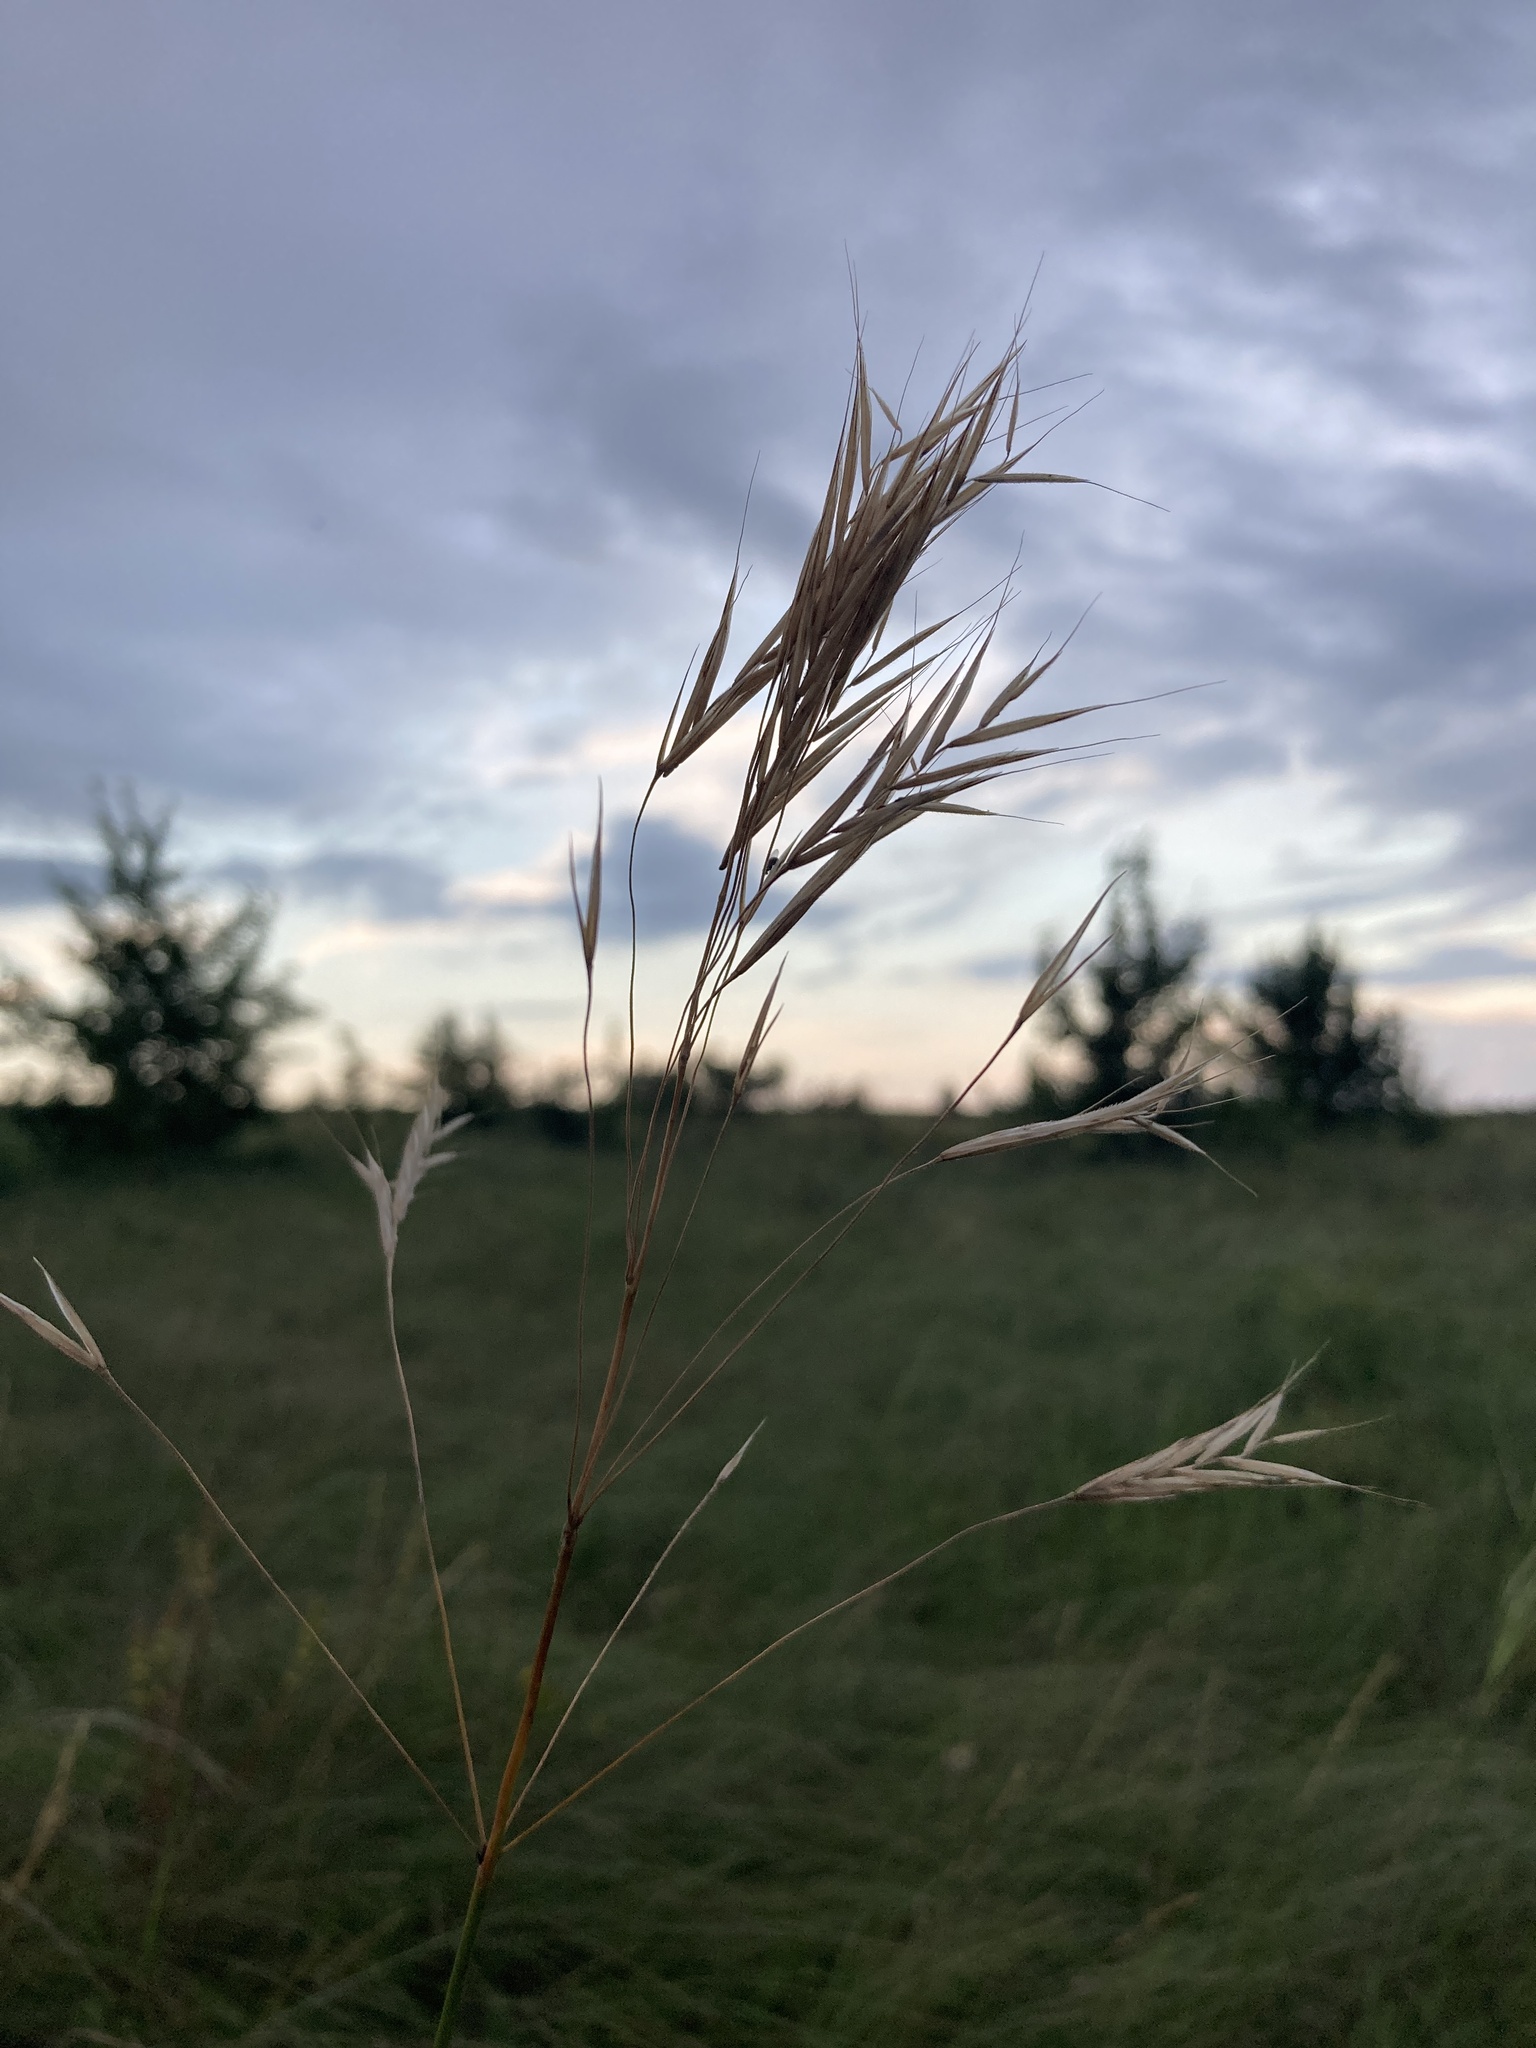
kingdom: Plantae
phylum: Tracheophyta
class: Liliopsida
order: Poales
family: Poaceae
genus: Bromus
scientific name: Bromus riparius
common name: Meadow brome
